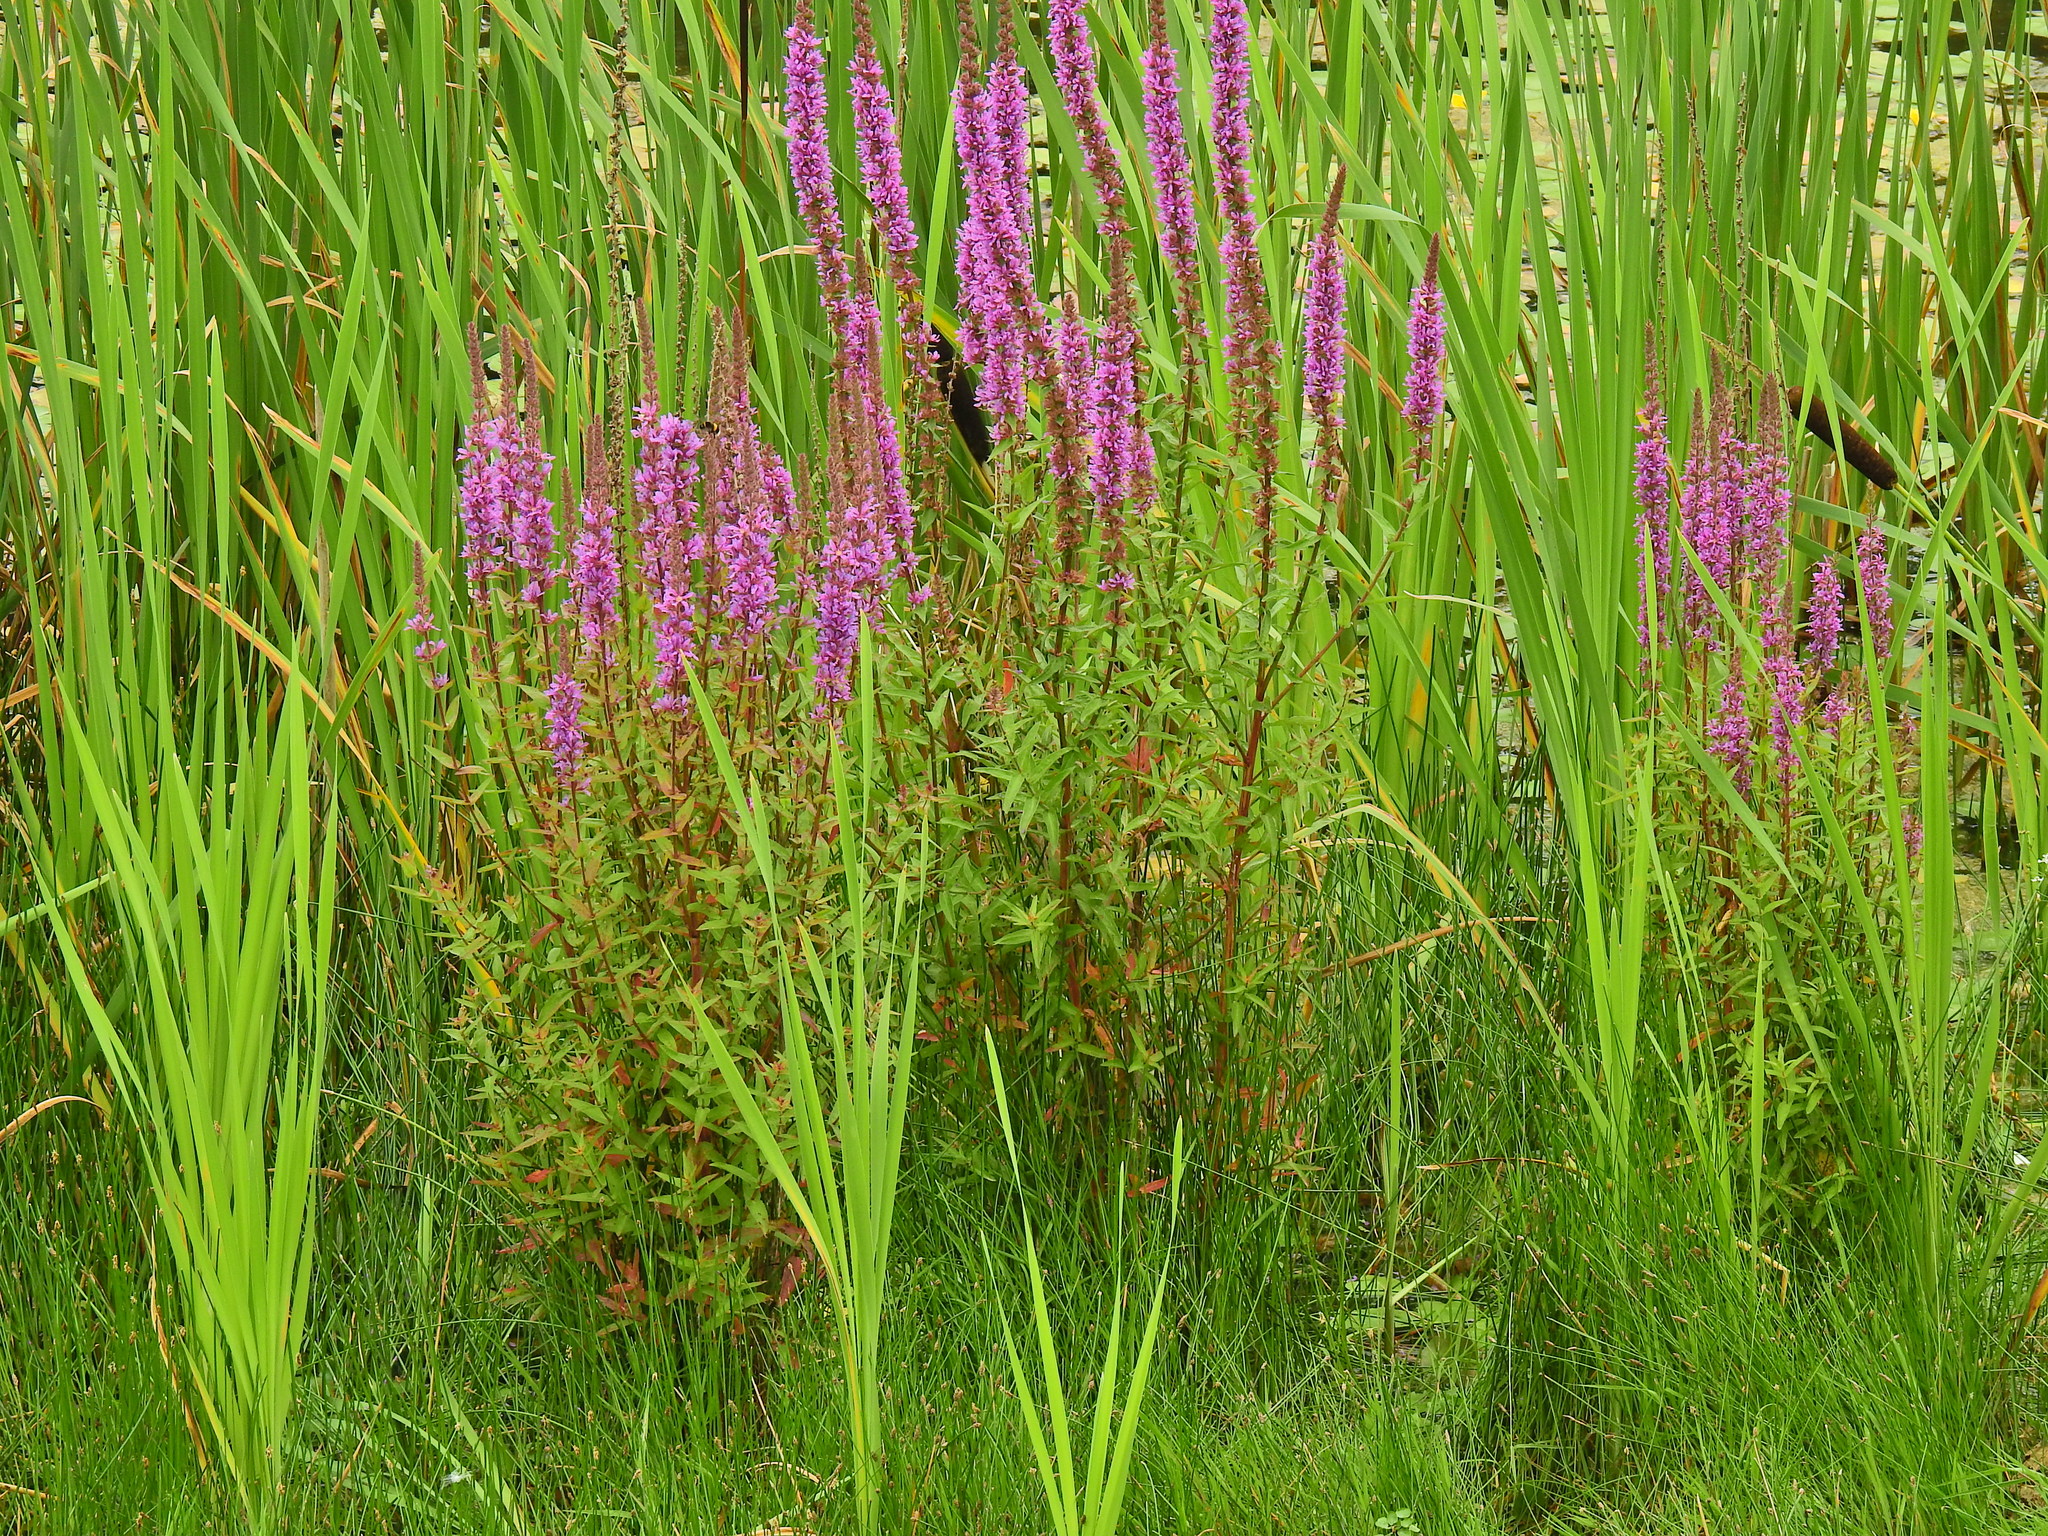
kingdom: Plantae
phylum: Tracheophyta
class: Magnoliopsida
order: Myrtales
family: Lythraceae
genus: Lythrum
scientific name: Lythrum salicaria
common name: Purple loosestrife
